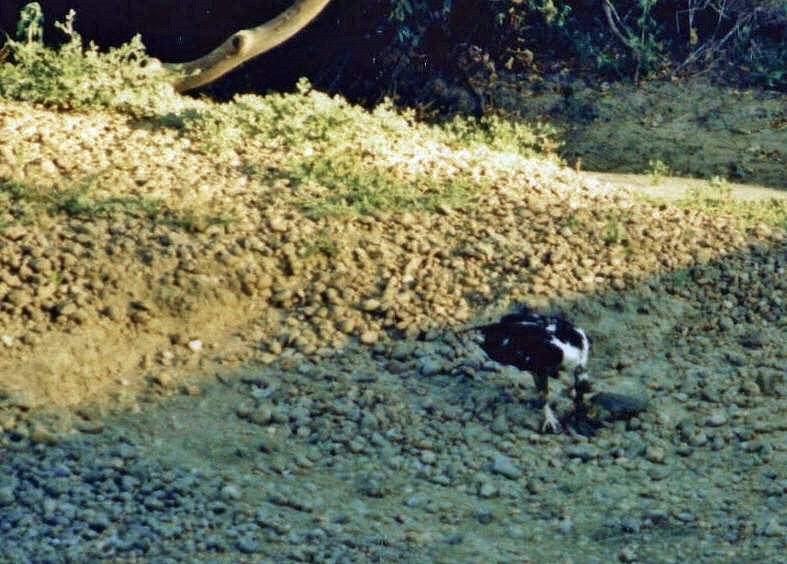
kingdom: Animalia
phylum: Chordata
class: Aves
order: Accipitriformes
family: Accipitridae
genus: Haliaeetus
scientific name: Haliaeetus vocifer
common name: African fish eagle
